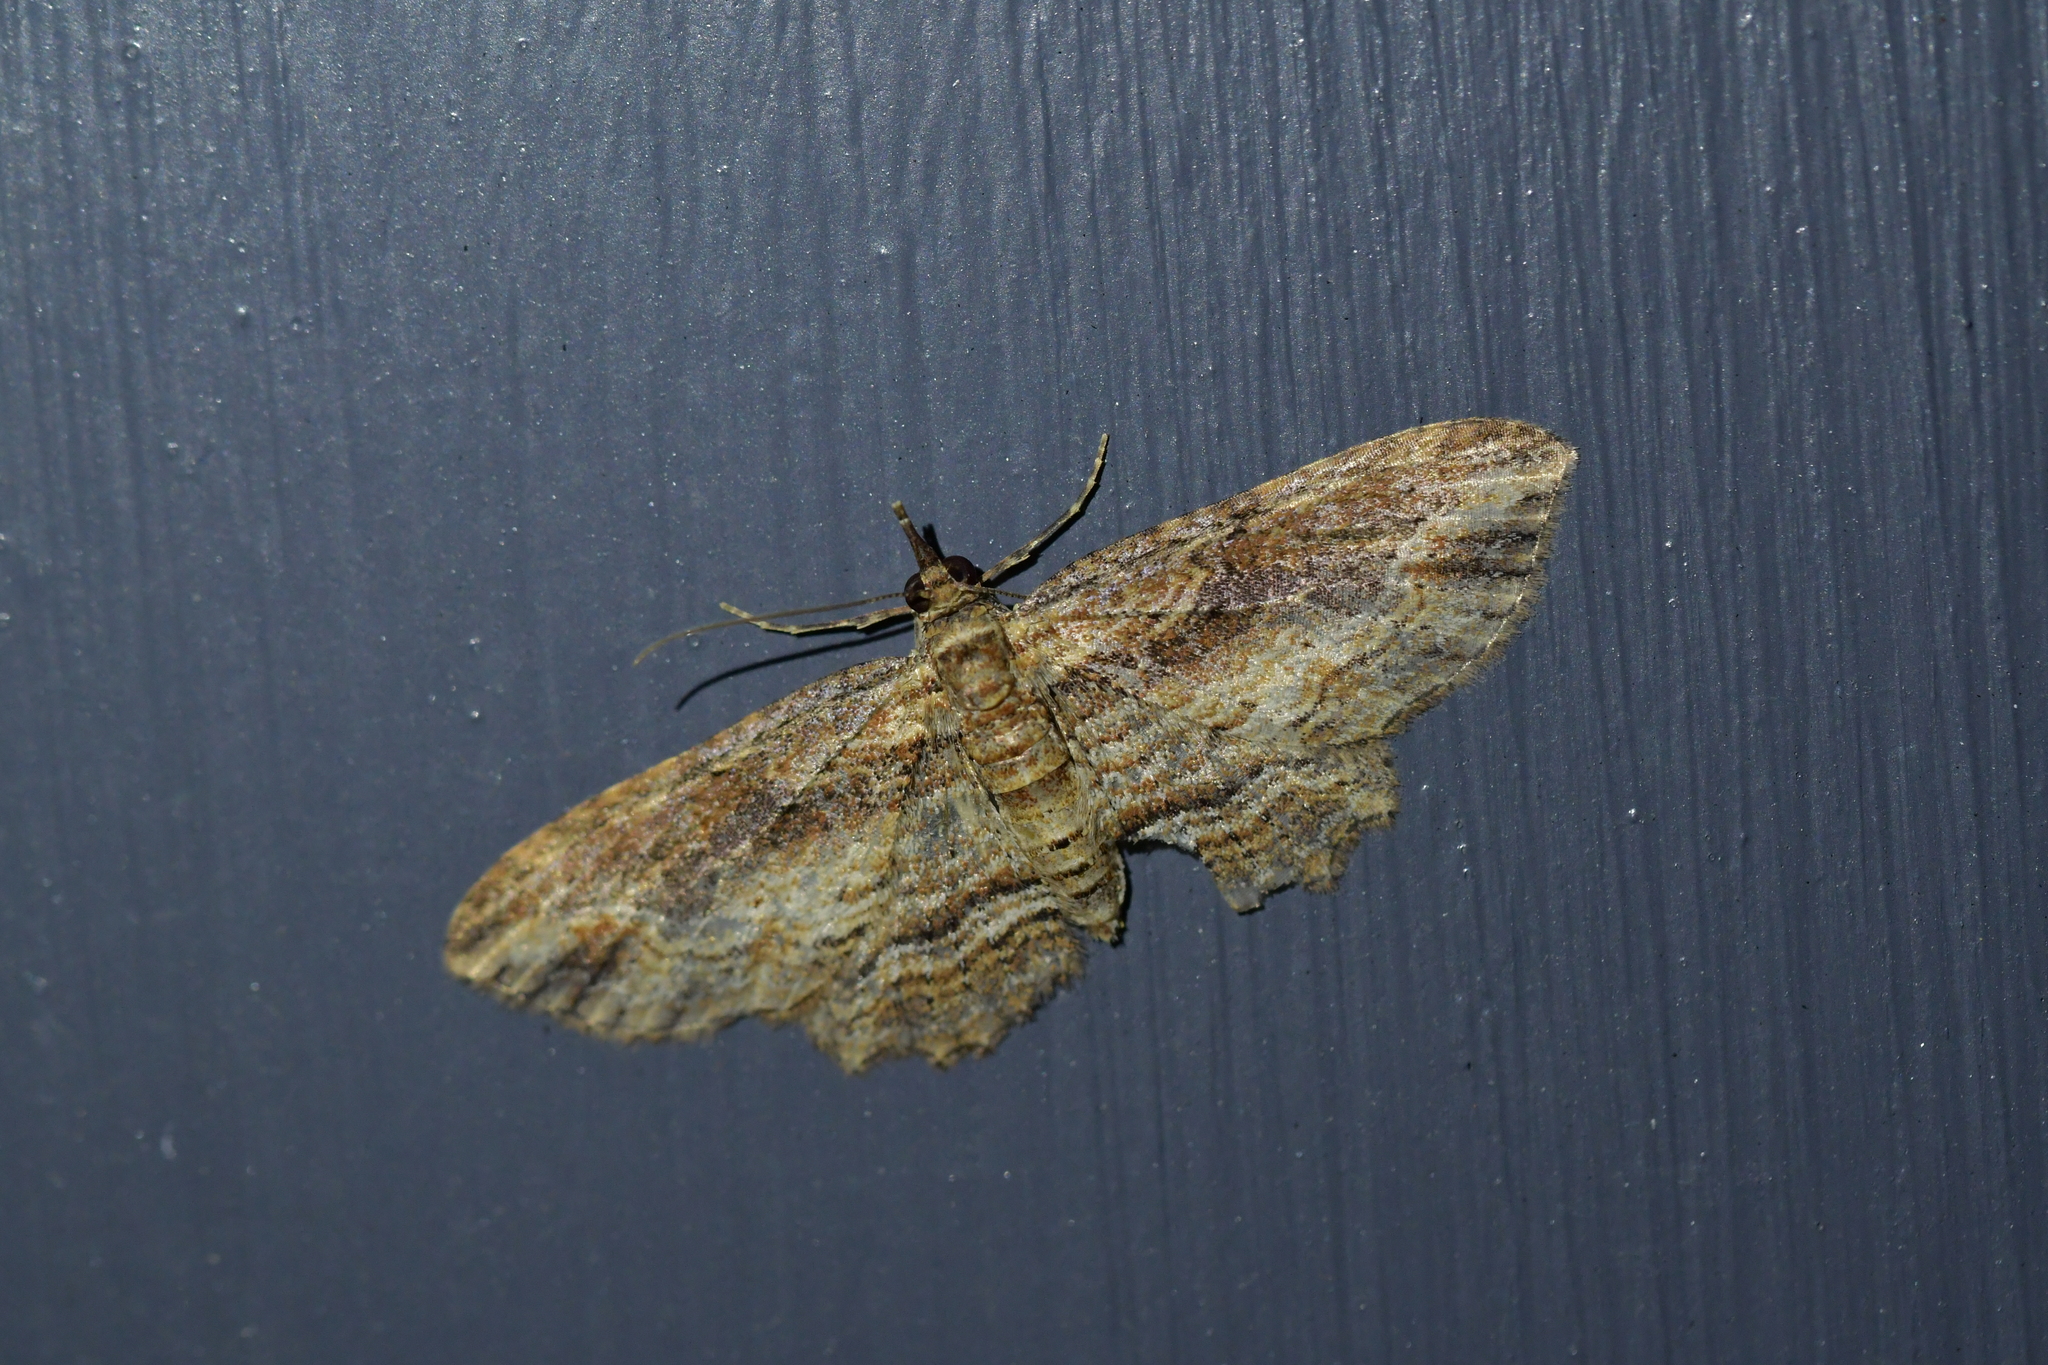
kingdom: Animalia
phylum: Arthropoda
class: Insecta
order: Lepidoptera
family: Geometridae
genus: Chloroclystis
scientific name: Chloroclystis filata
